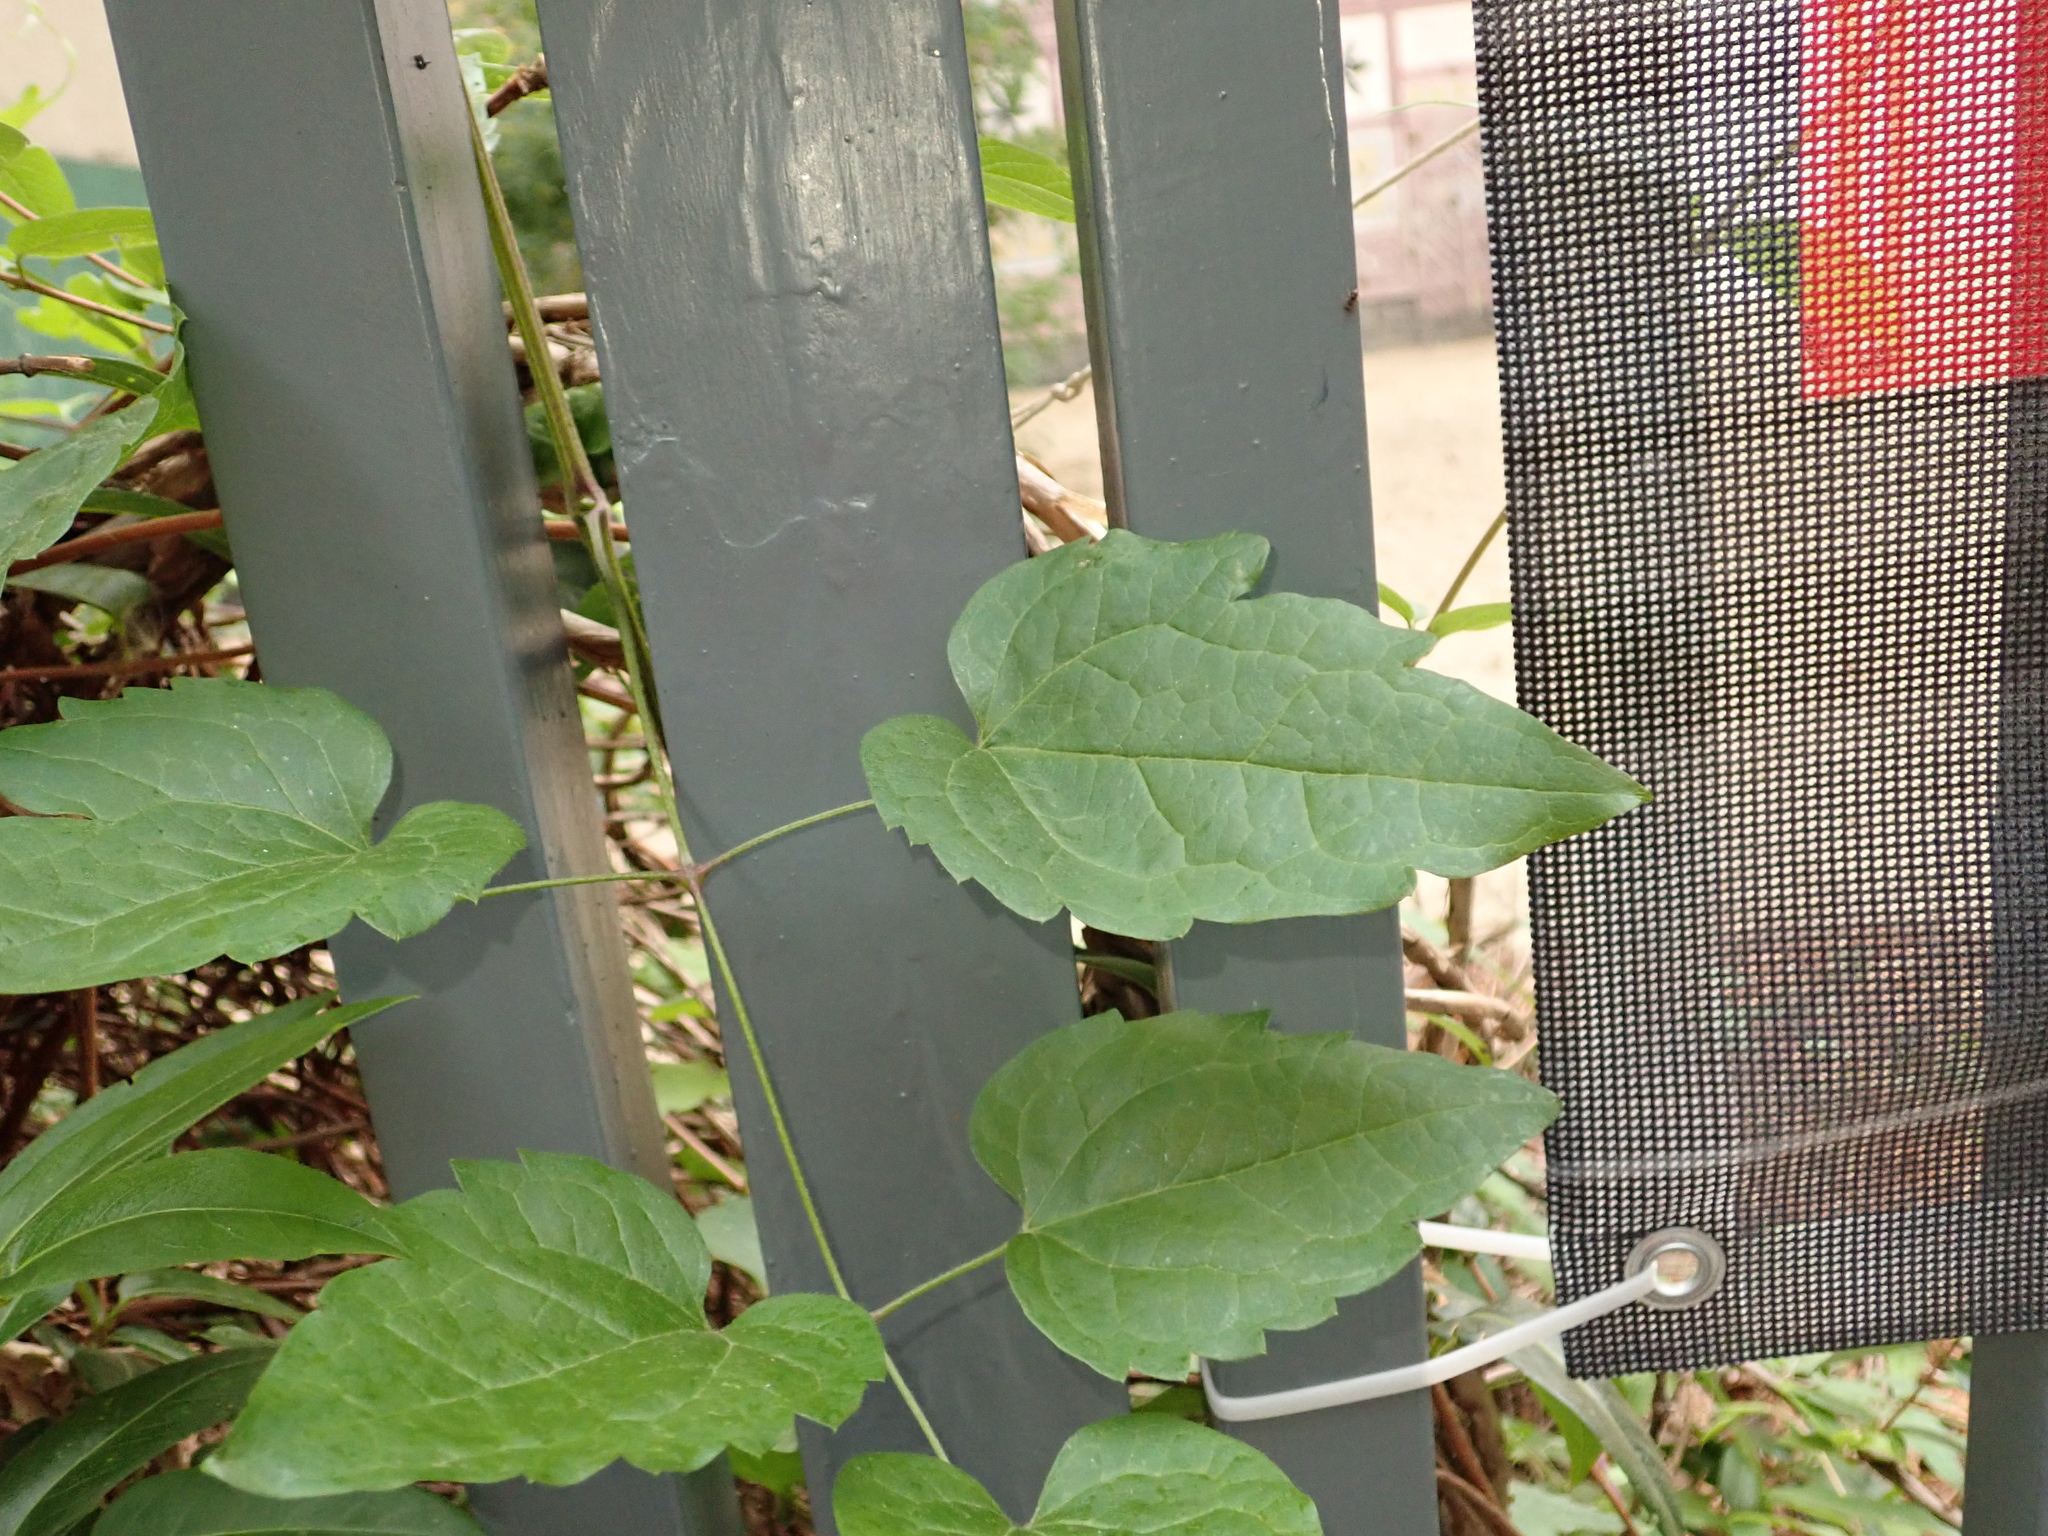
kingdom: Plantae
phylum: Tracheophyta
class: Magnoliopsida
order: Ranunculales
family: Ranunculaceae
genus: Clematis
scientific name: Clematis vitalba
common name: Evergreen clematis
